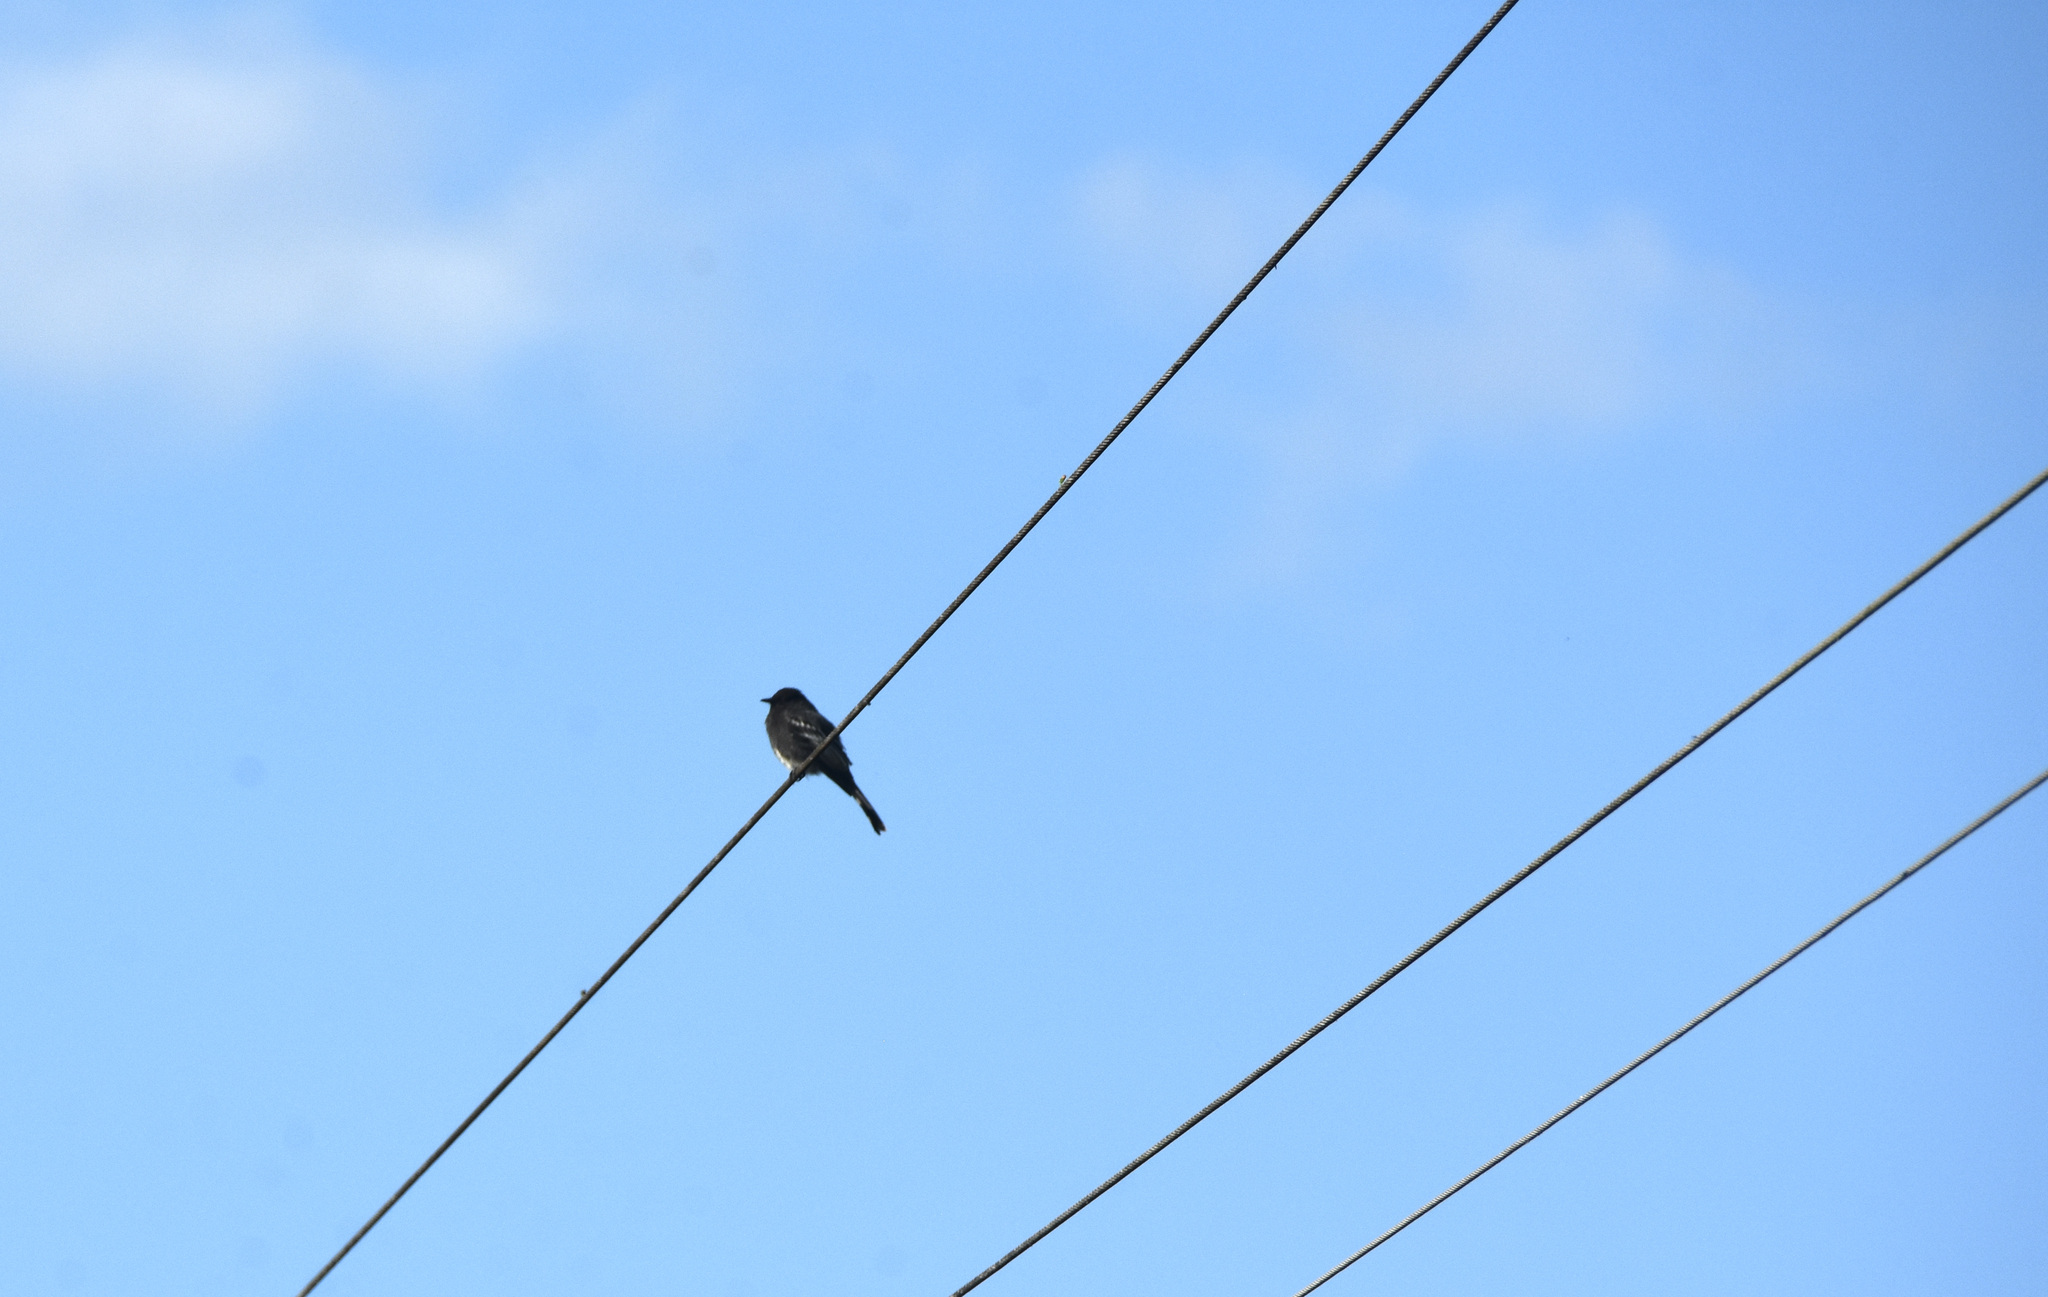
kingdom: Animalia
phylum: Chordata
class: Aves
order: Passeriformes
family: Tyrannidae
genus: Sayornis
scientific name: Sayornis nigricans
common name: Black phoebe
